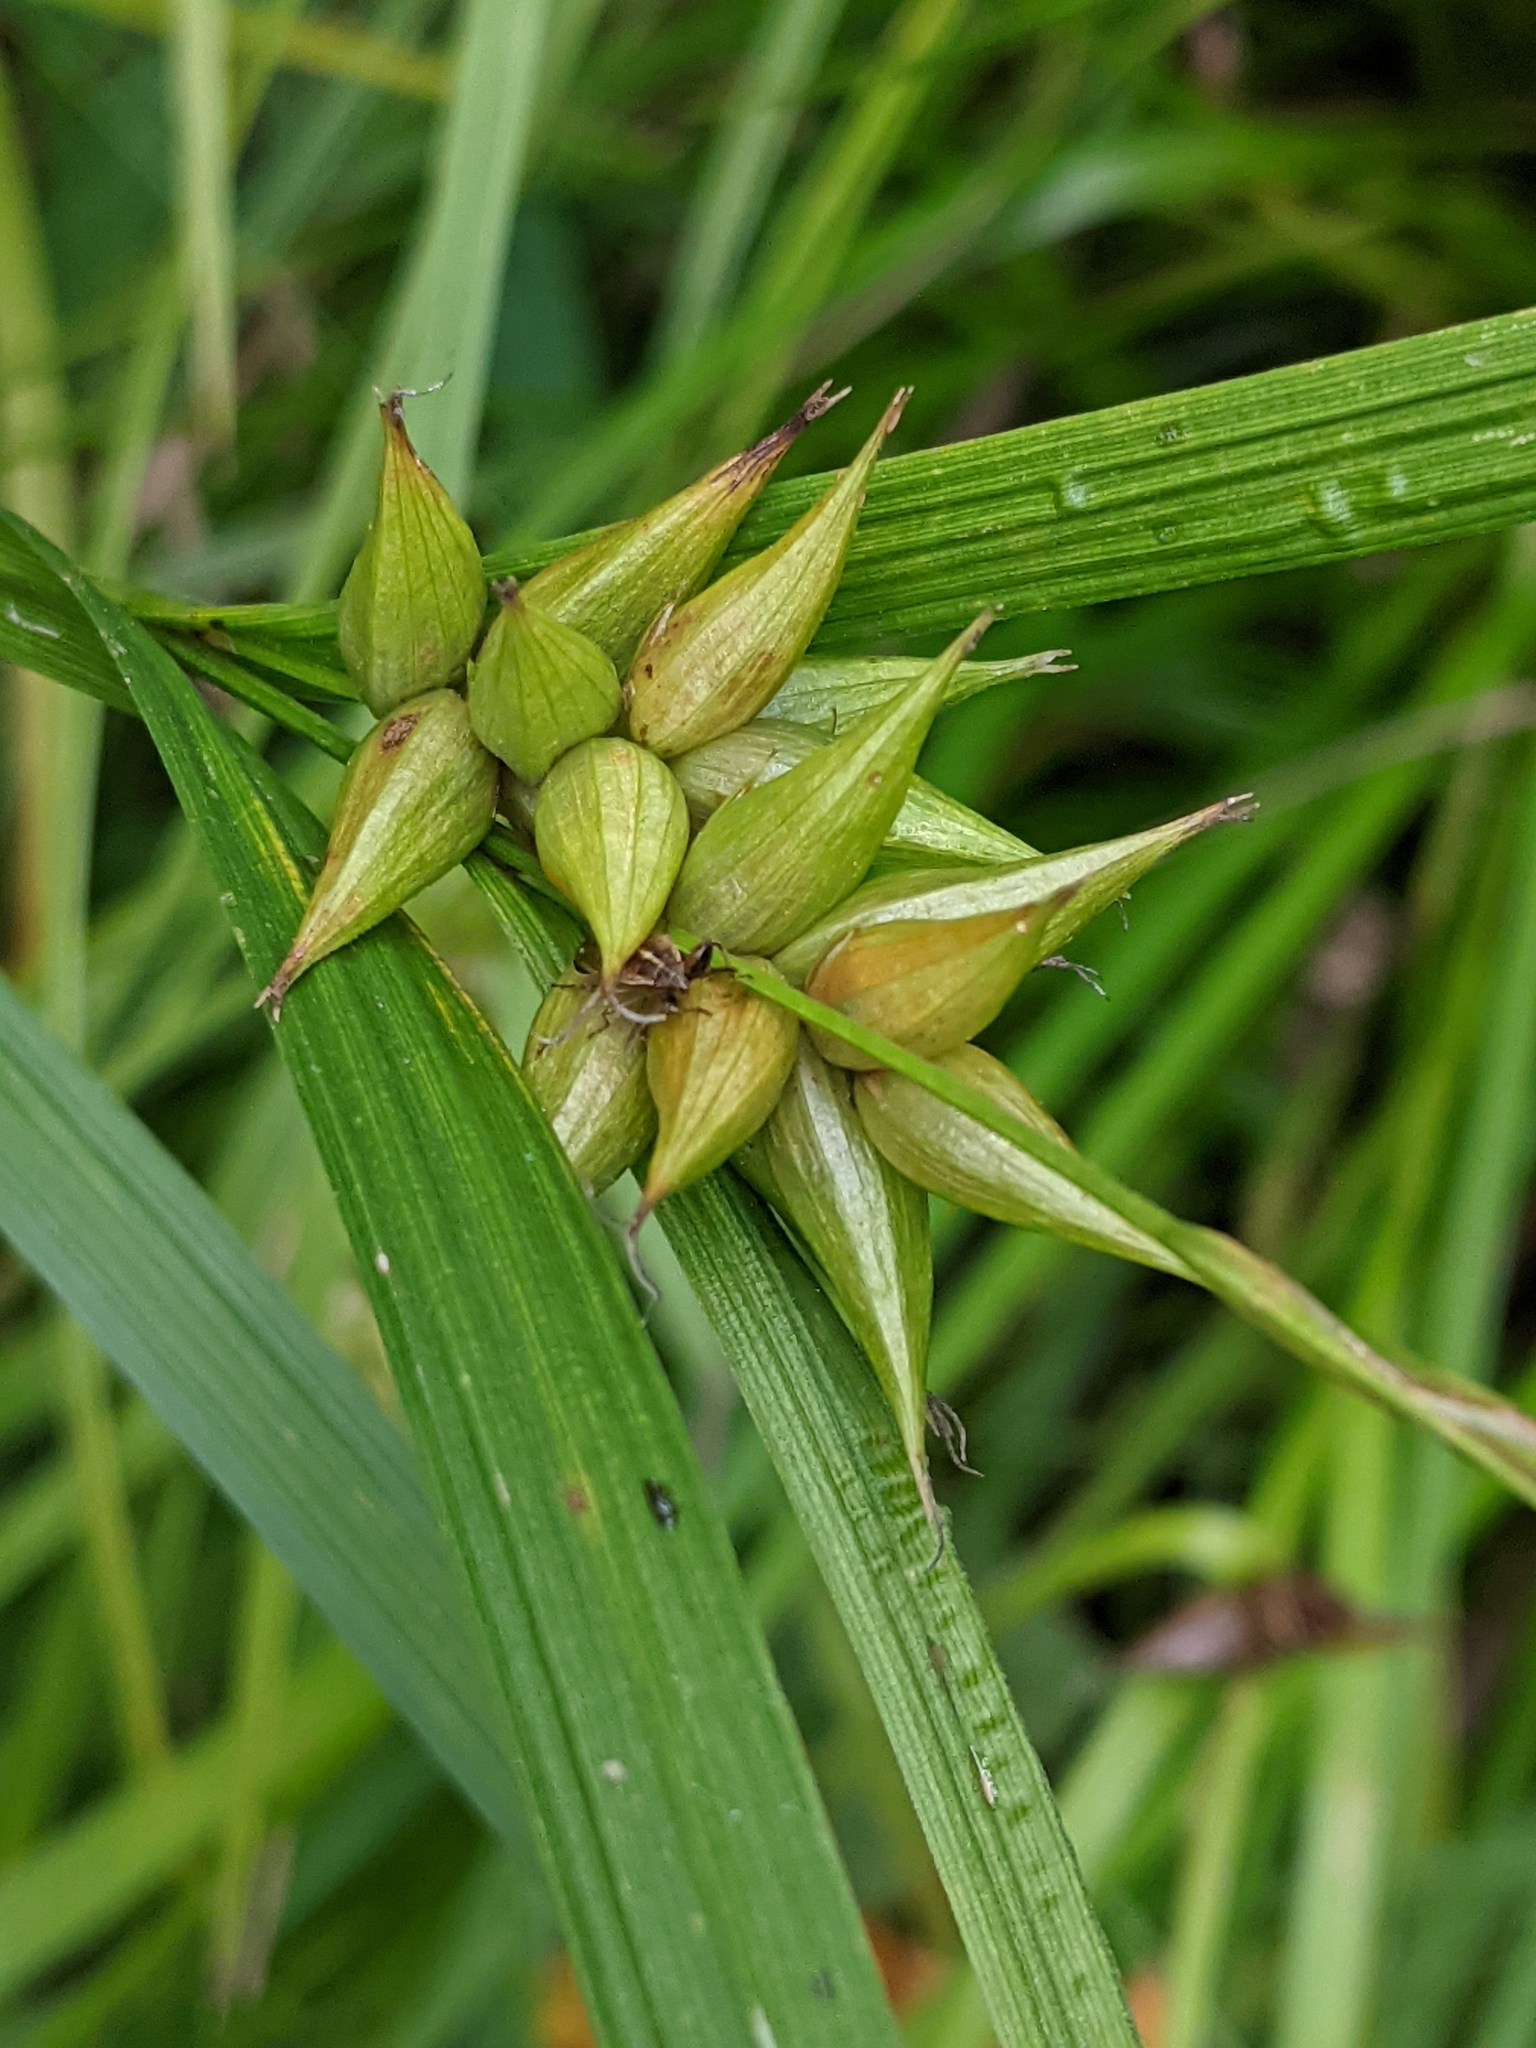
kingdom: Plantae
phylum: Tracheophyta
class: Liliopsida
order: Poales
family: Cyperaceae
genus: Carex
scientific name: Carex intumescens
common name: Greater bladder sedge
